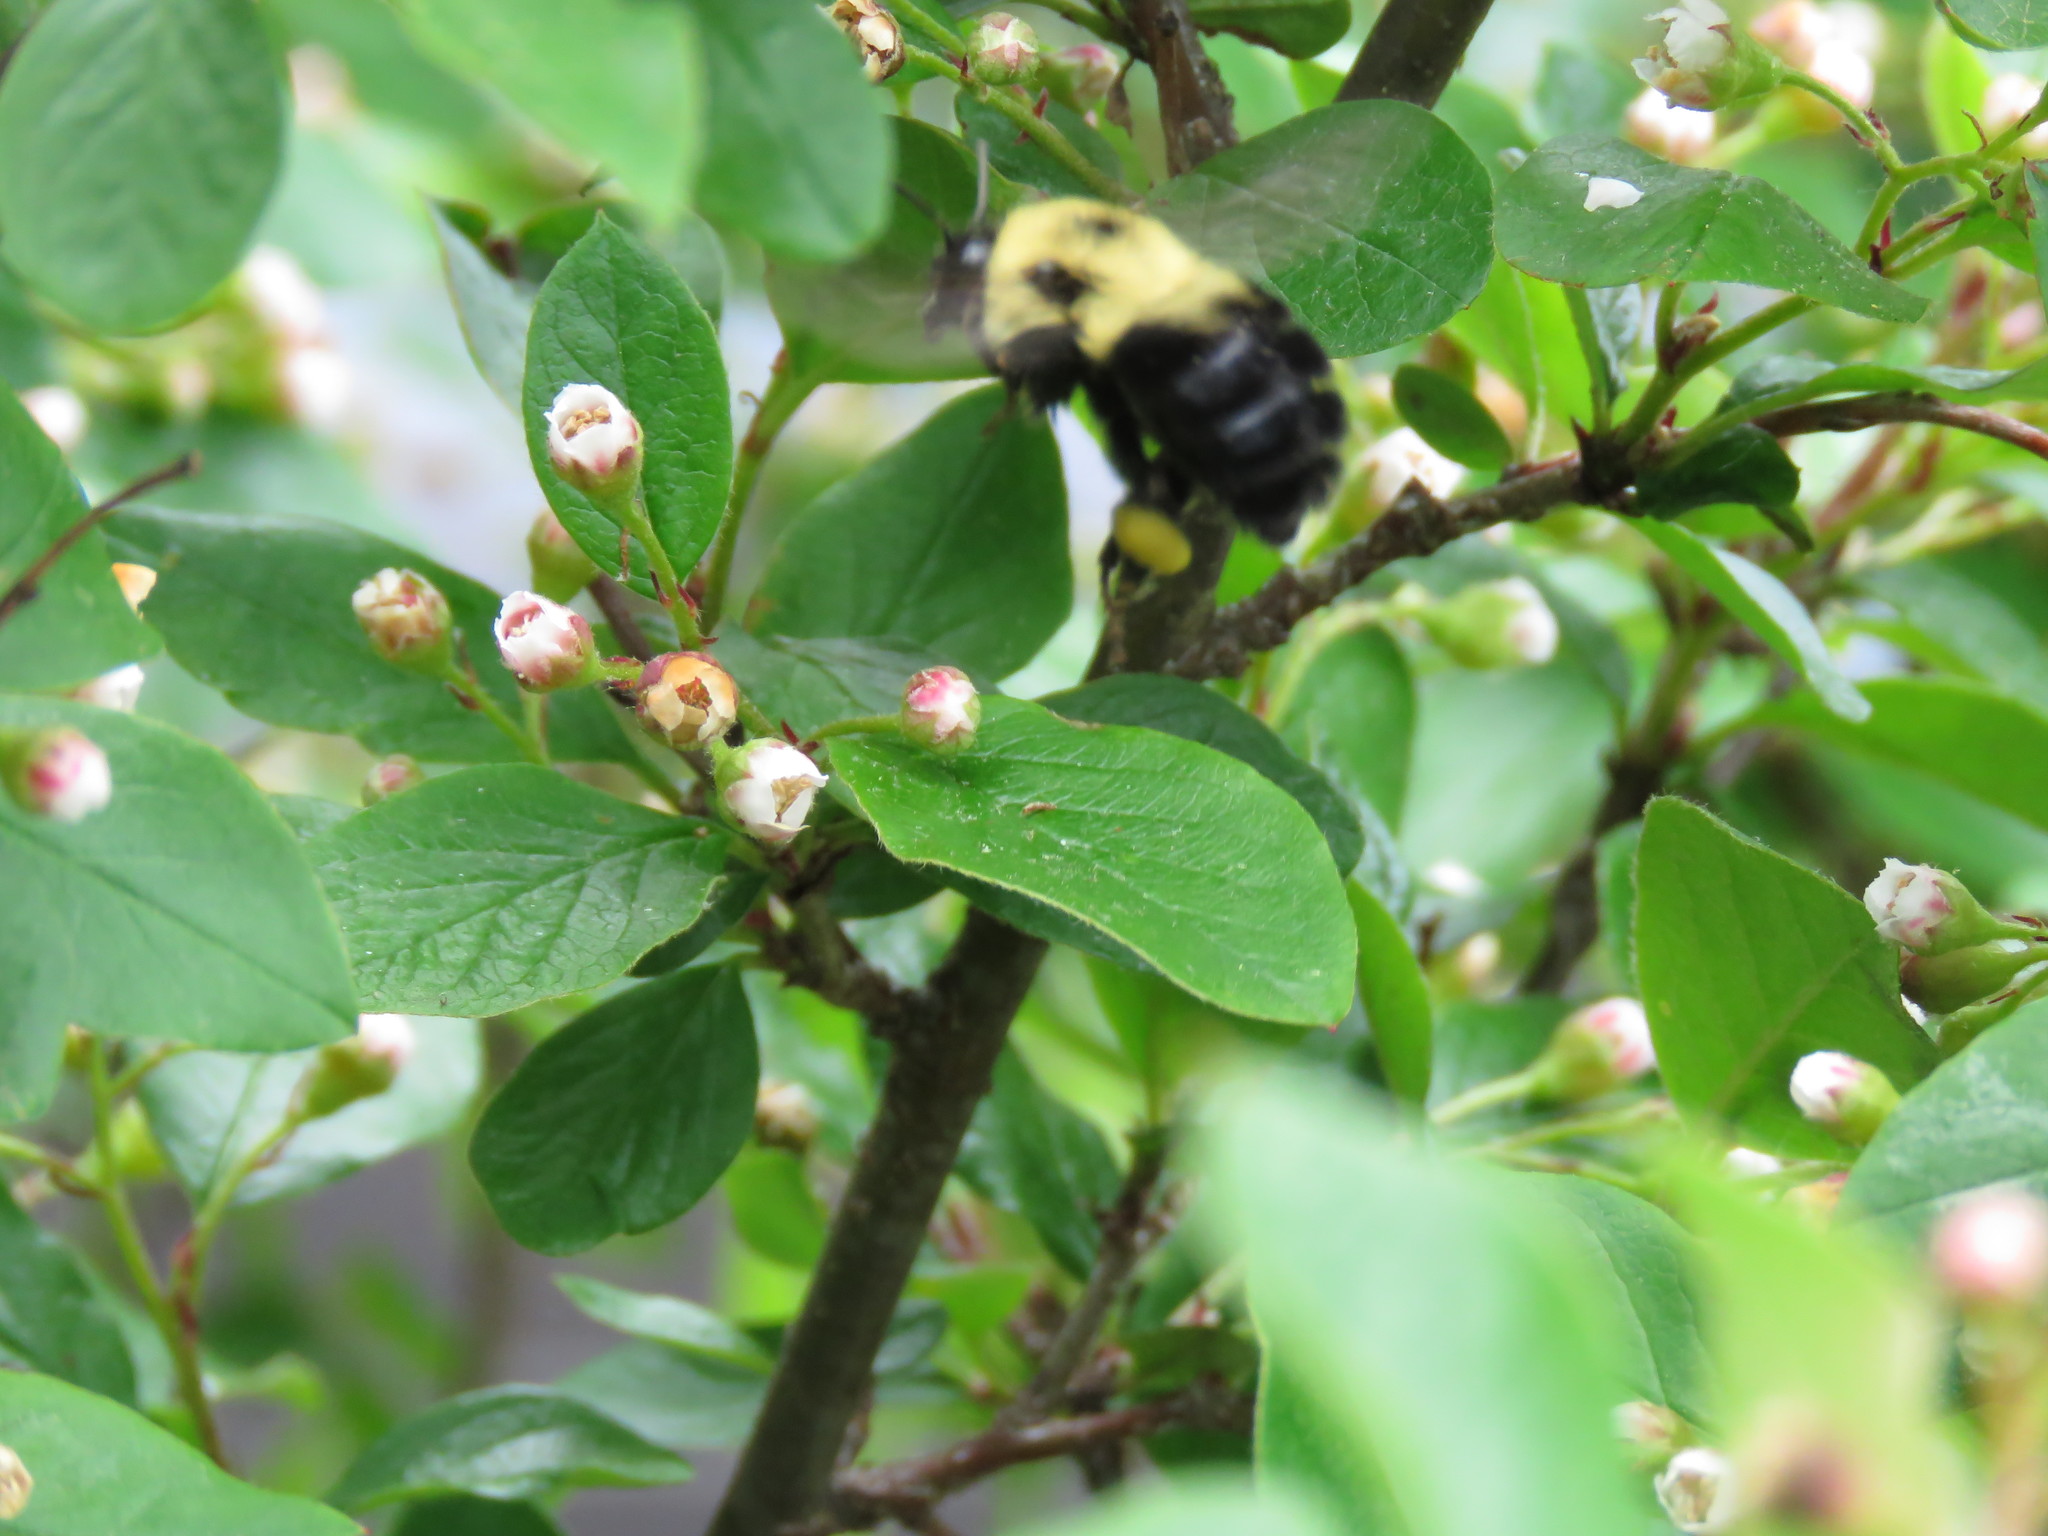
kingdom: Animalia
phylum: Arthropoda
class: Insecta
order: Hymenoptera
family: Apidae
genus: Bombus
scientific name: Bombus bimaculatus
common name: Two-spotted bumble bee
